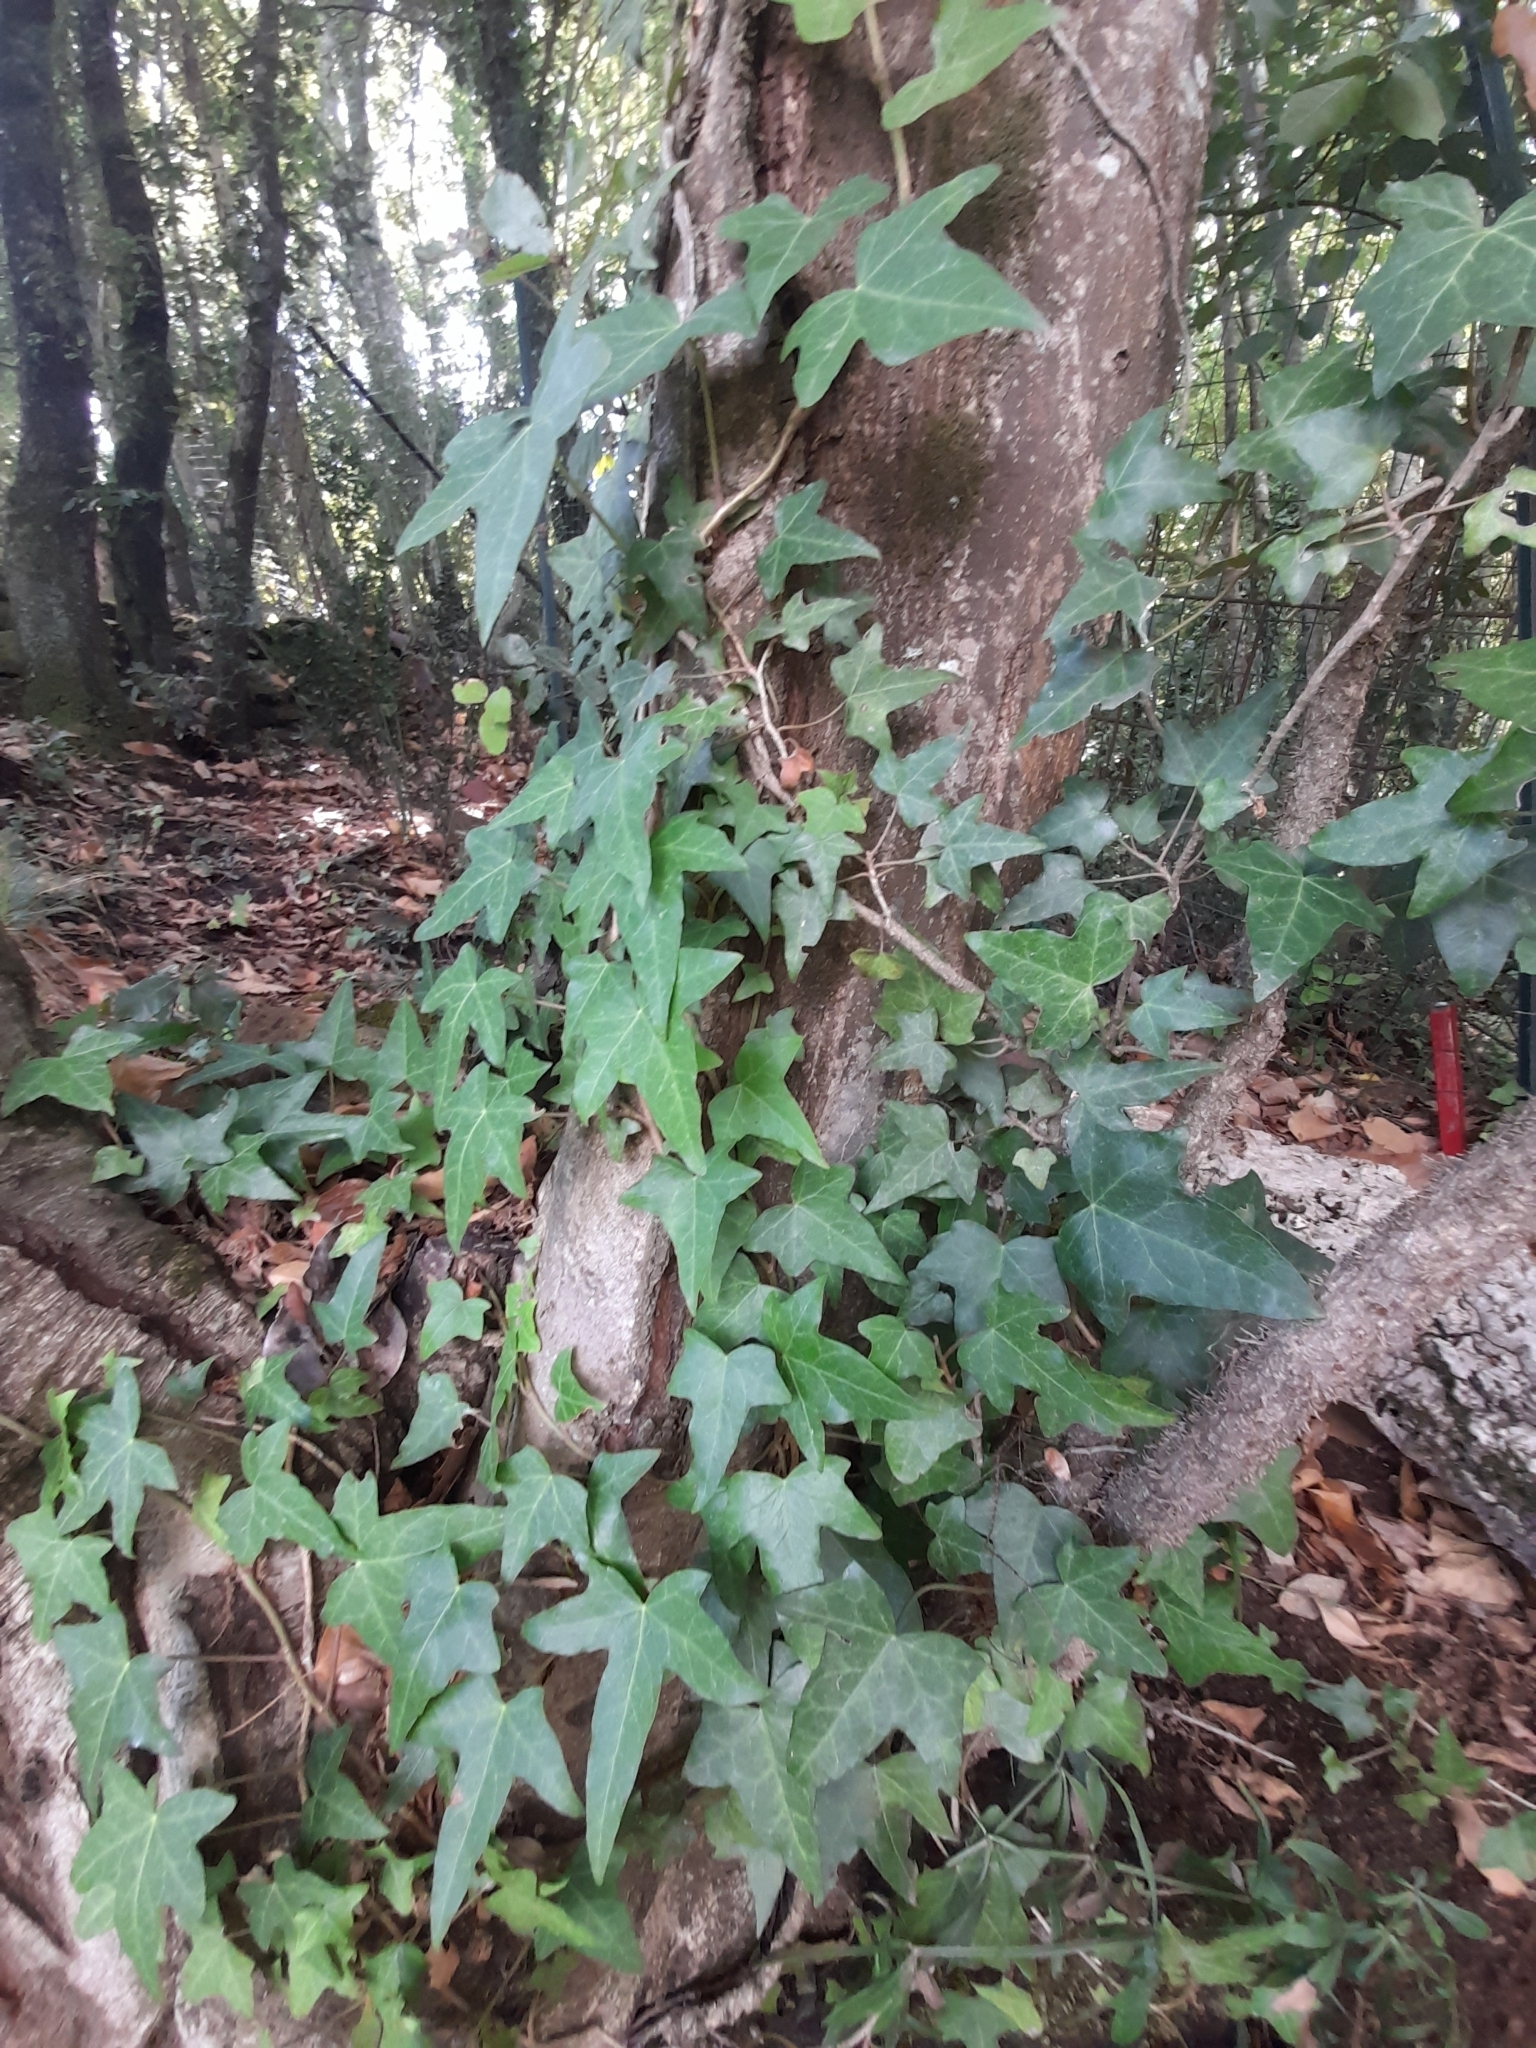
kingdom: Plantae
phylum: Tracheophyta
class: Magnoliopsida
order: Apiales
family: Araliaceae
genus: Hedera
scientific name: Hedera helix
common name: Ivy
